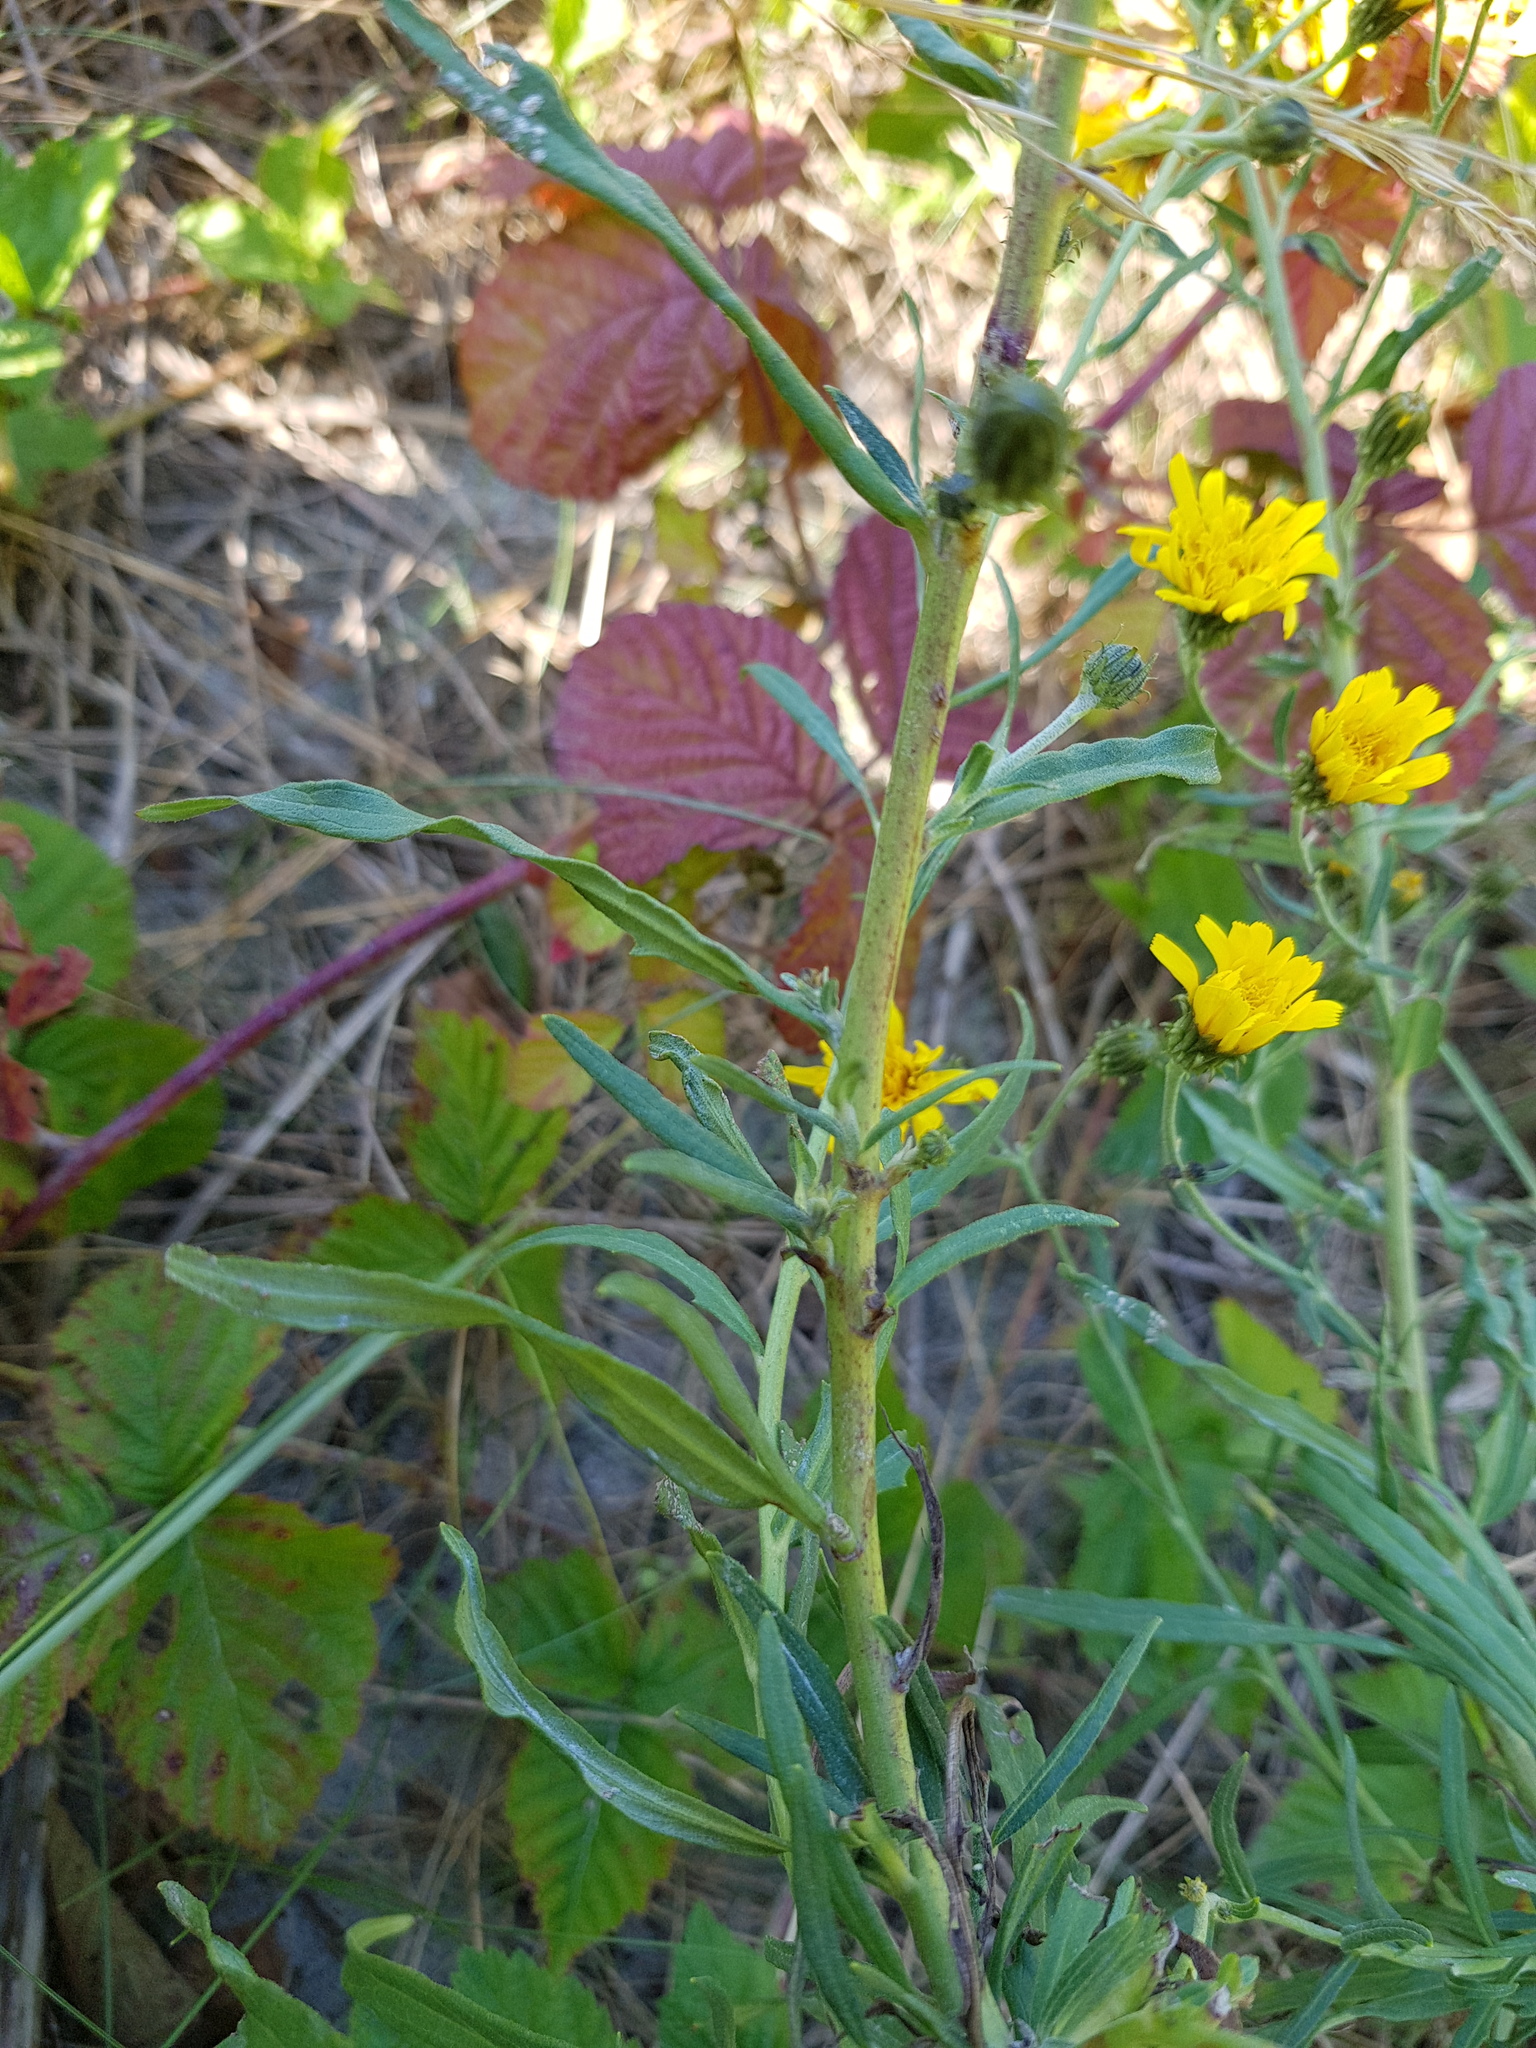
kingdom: Plantae
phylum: Tracheophyta
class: Magnoliopsida
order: Asterales
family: Asteraceae
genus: Hieracium
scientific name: Hieracium umbellatum
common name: Northern hawkweed
